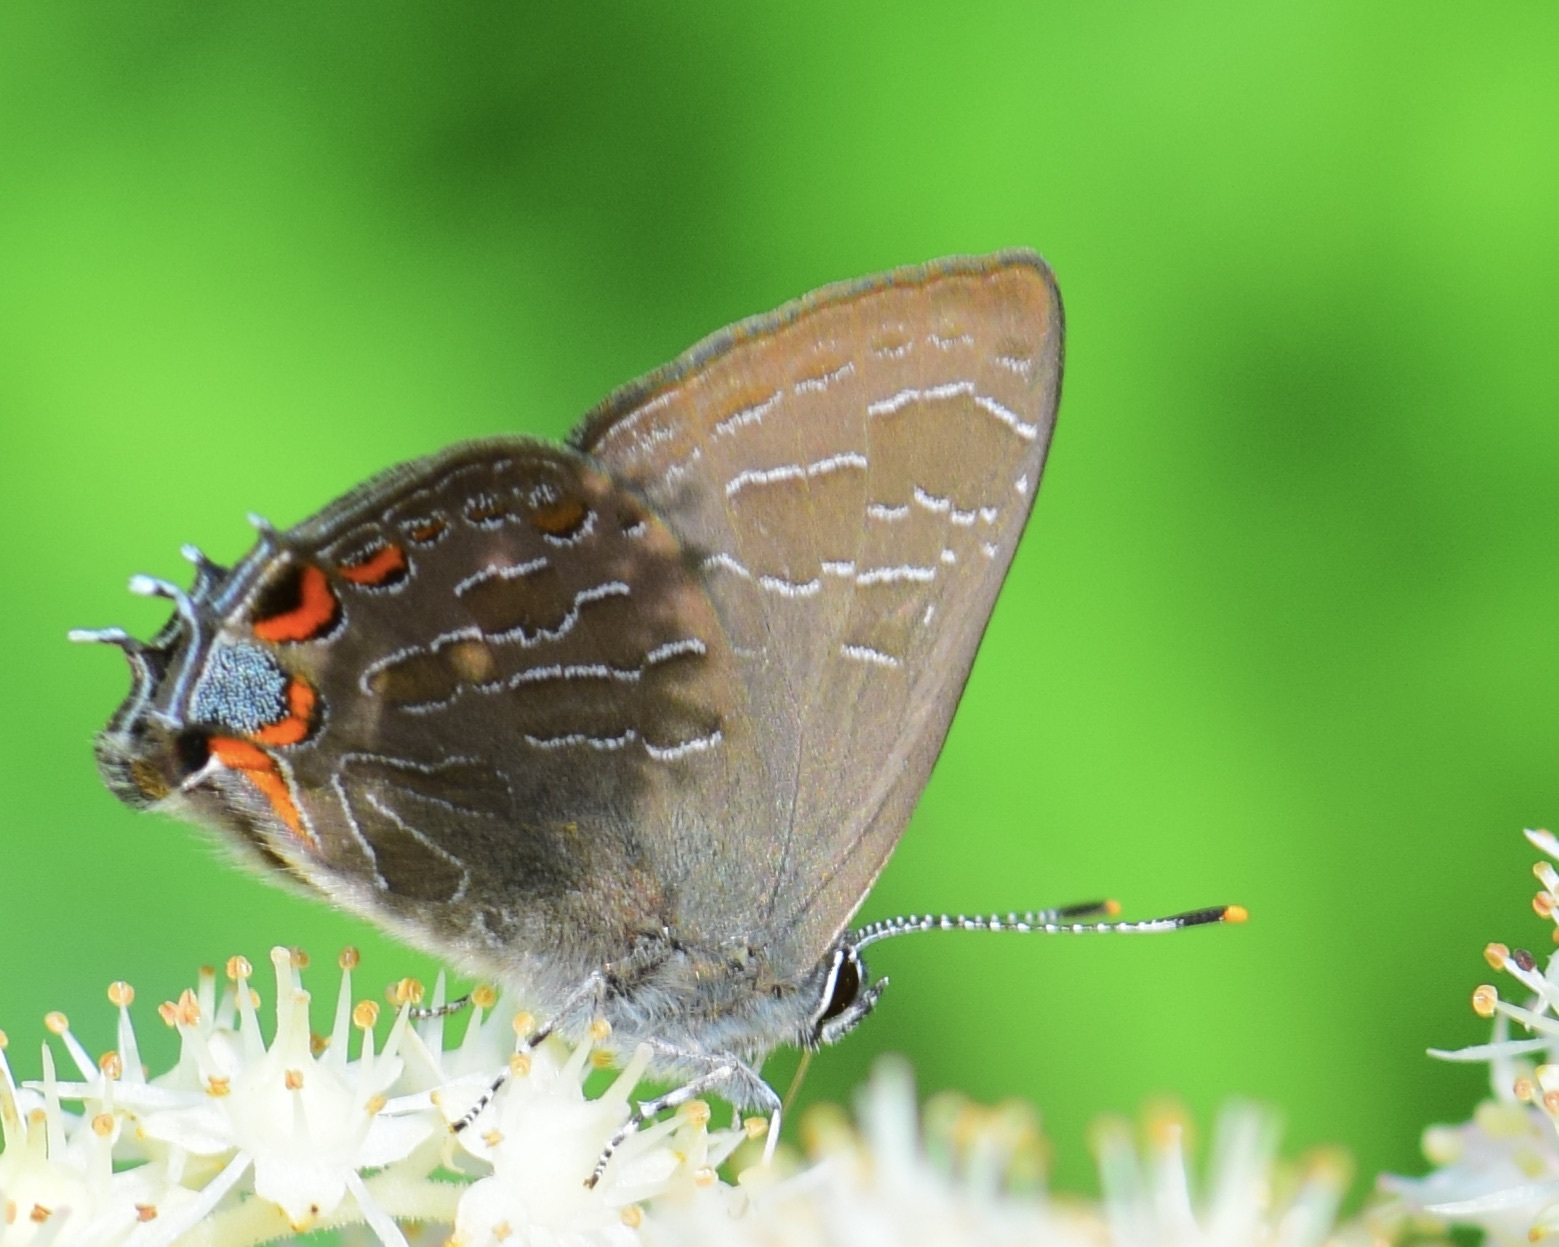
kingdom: Animalia
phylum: Arthropoda
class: Insecta
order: Lepidoptera
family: Lycaenidae
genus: Satyrium
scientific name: Satyrium liparops
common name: Striped hairstreak
